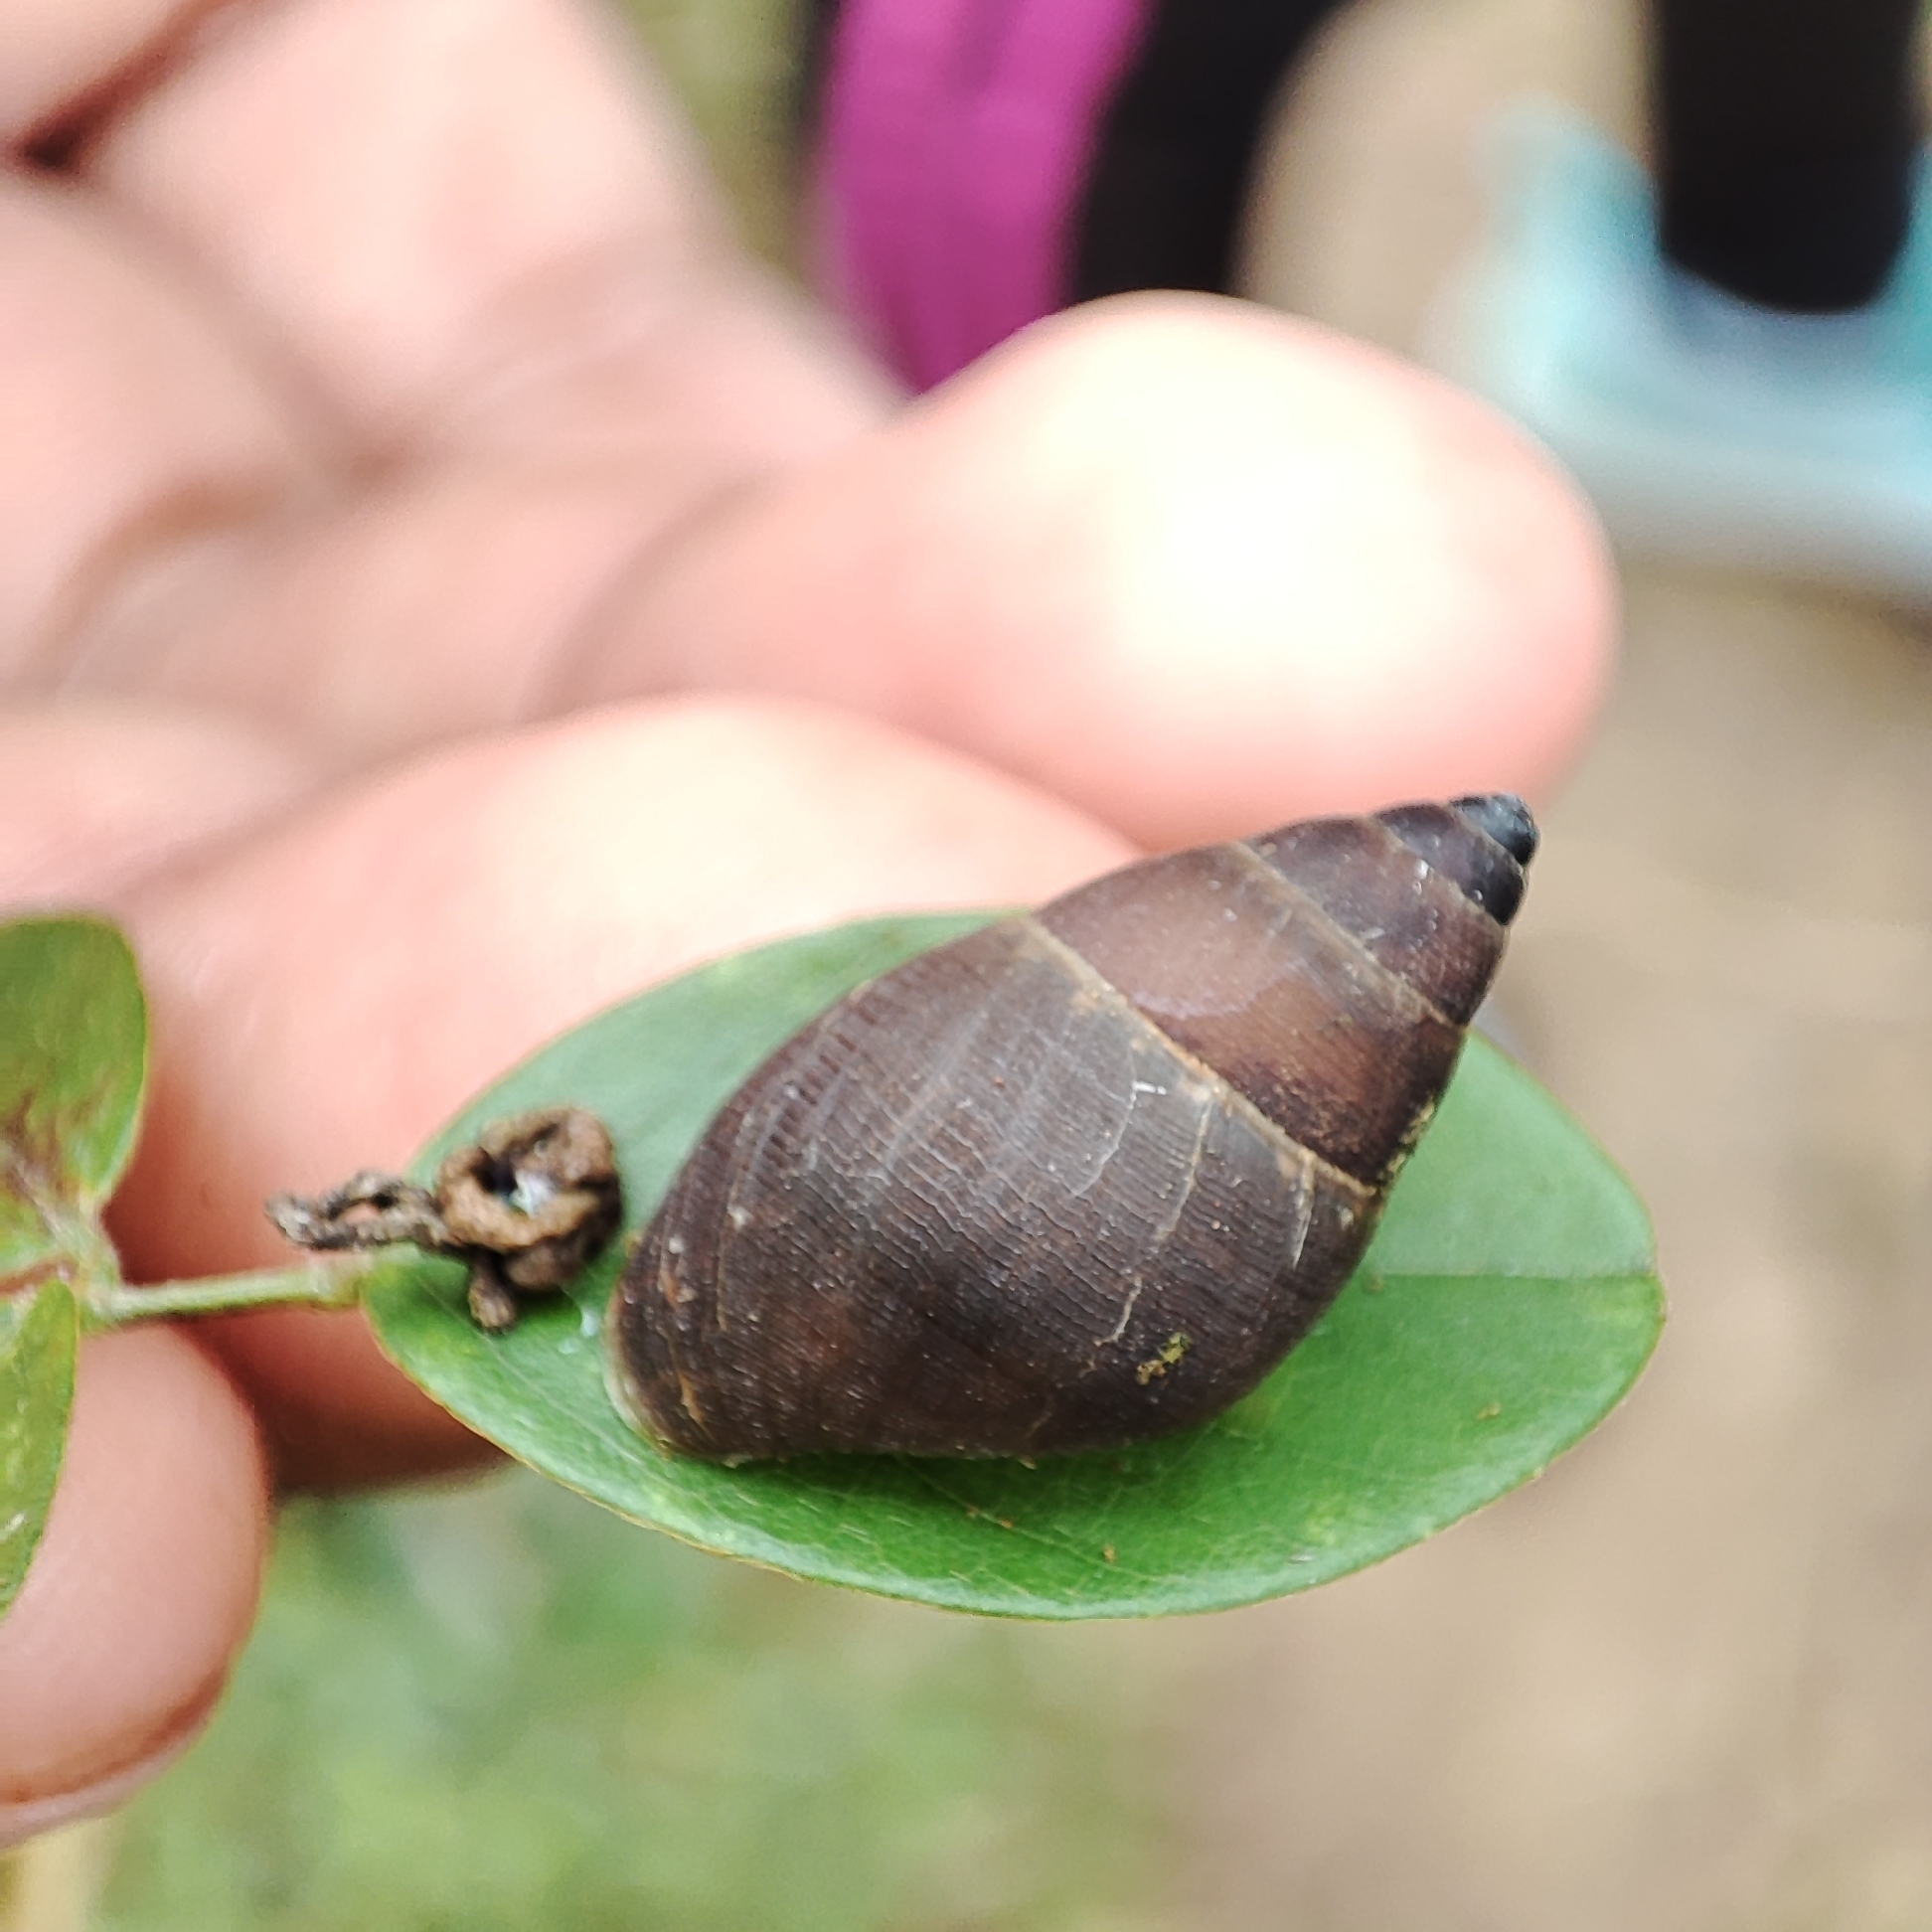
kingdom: Animalia
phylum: Mollusca
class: Gastropoda
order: Stylommatophora
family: Bulimulidae
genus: Bulimulus
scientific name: Bulimulus guadalupensis
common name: West indian bulimulus
